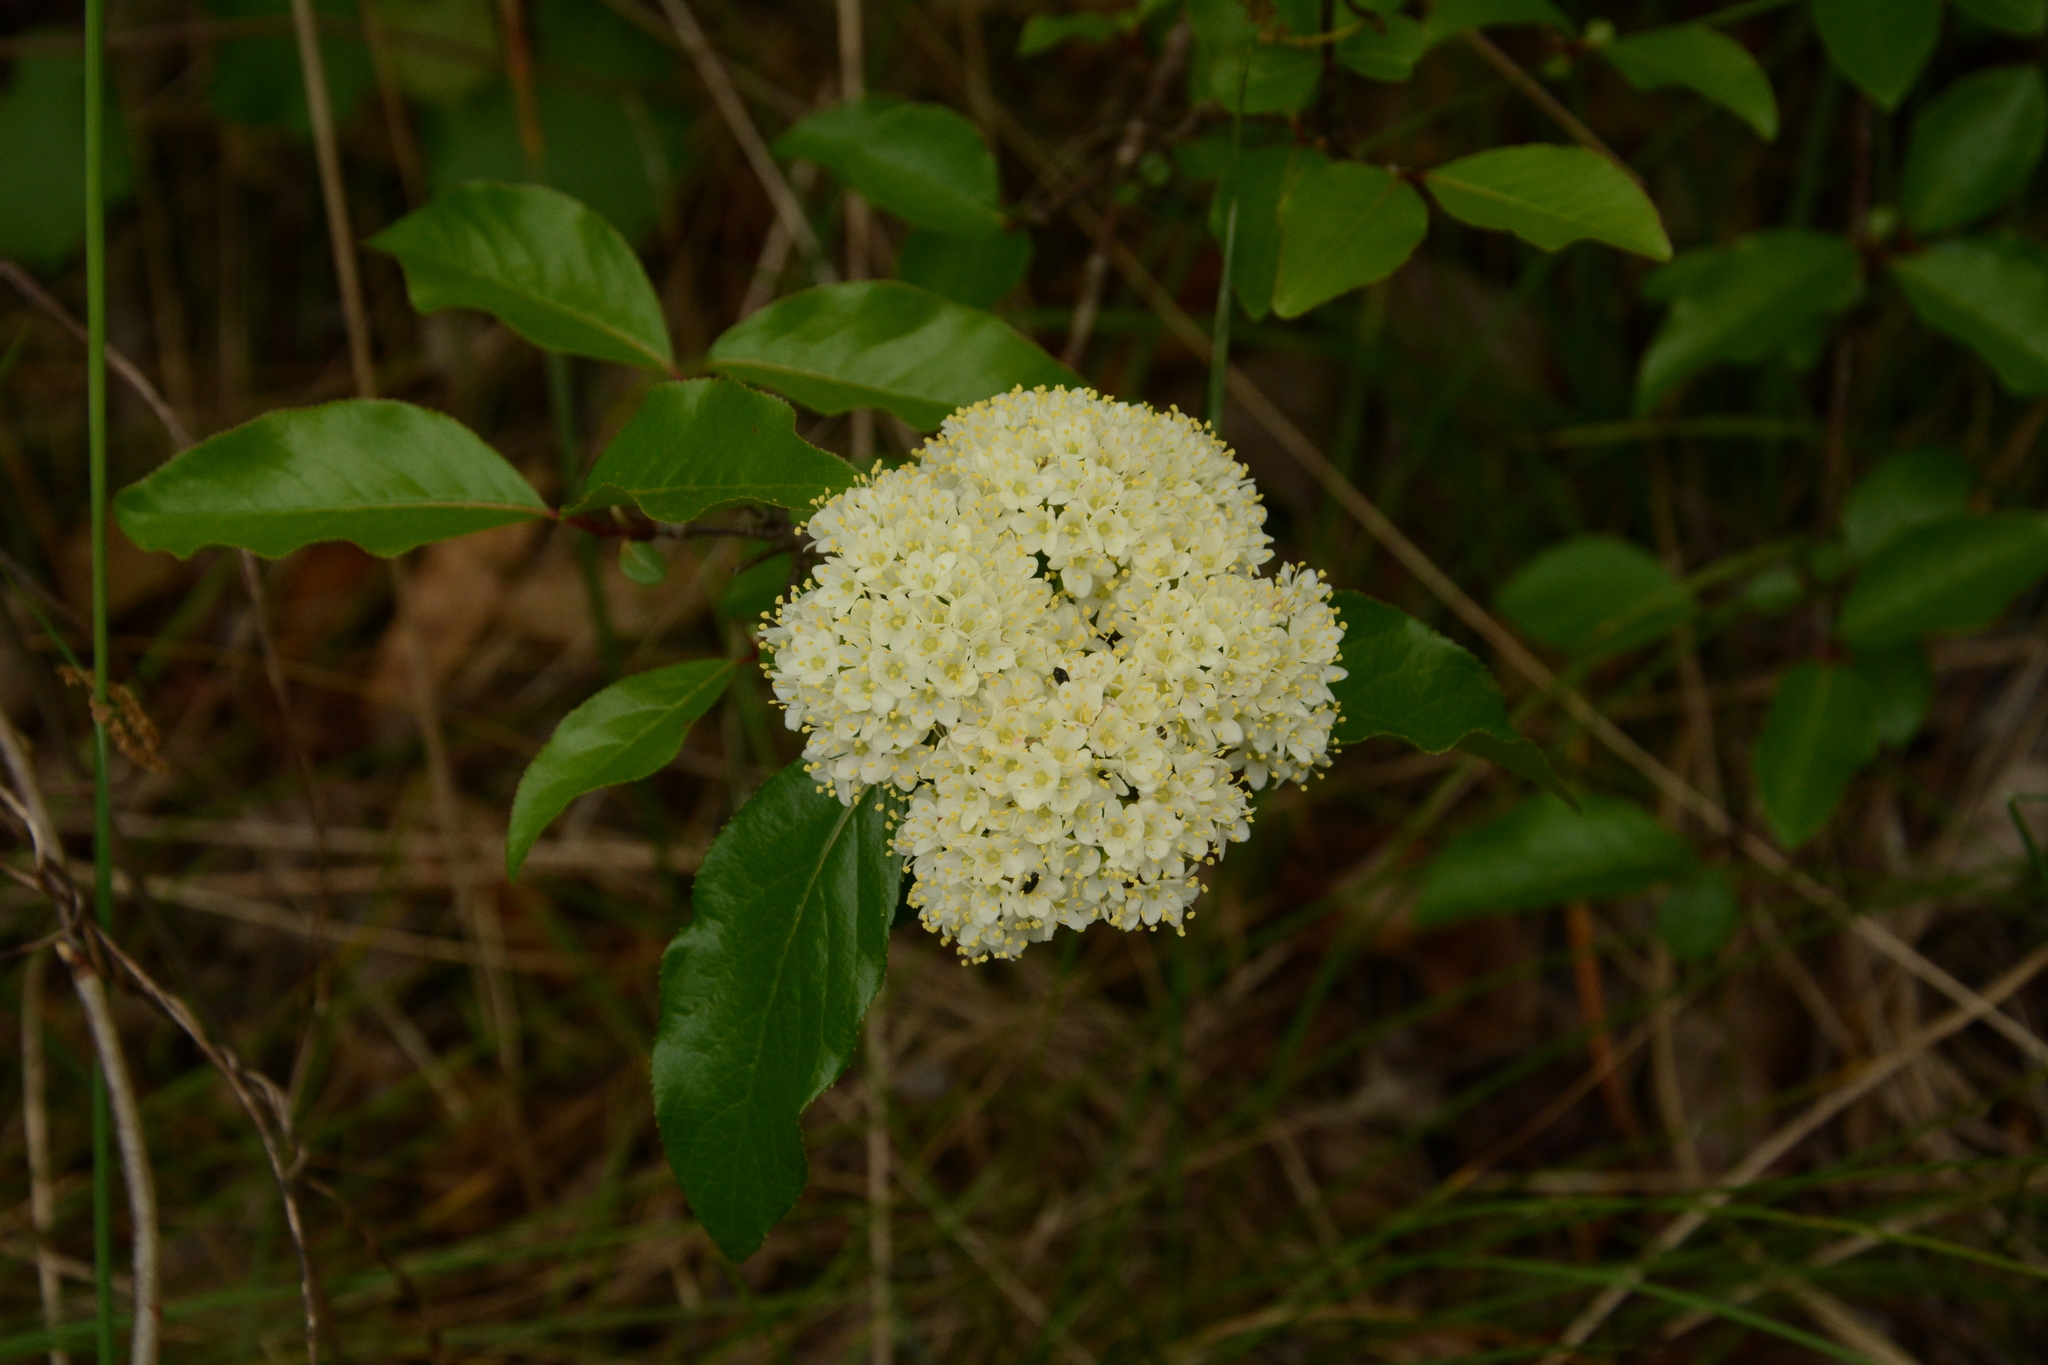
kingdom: Plantae
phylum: Tracheophyta
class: Magnoliopsida
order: Dipsacales
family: Viburnaceae
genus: Viburnum
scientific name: Viburnum rufidulum
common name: Blue haw
